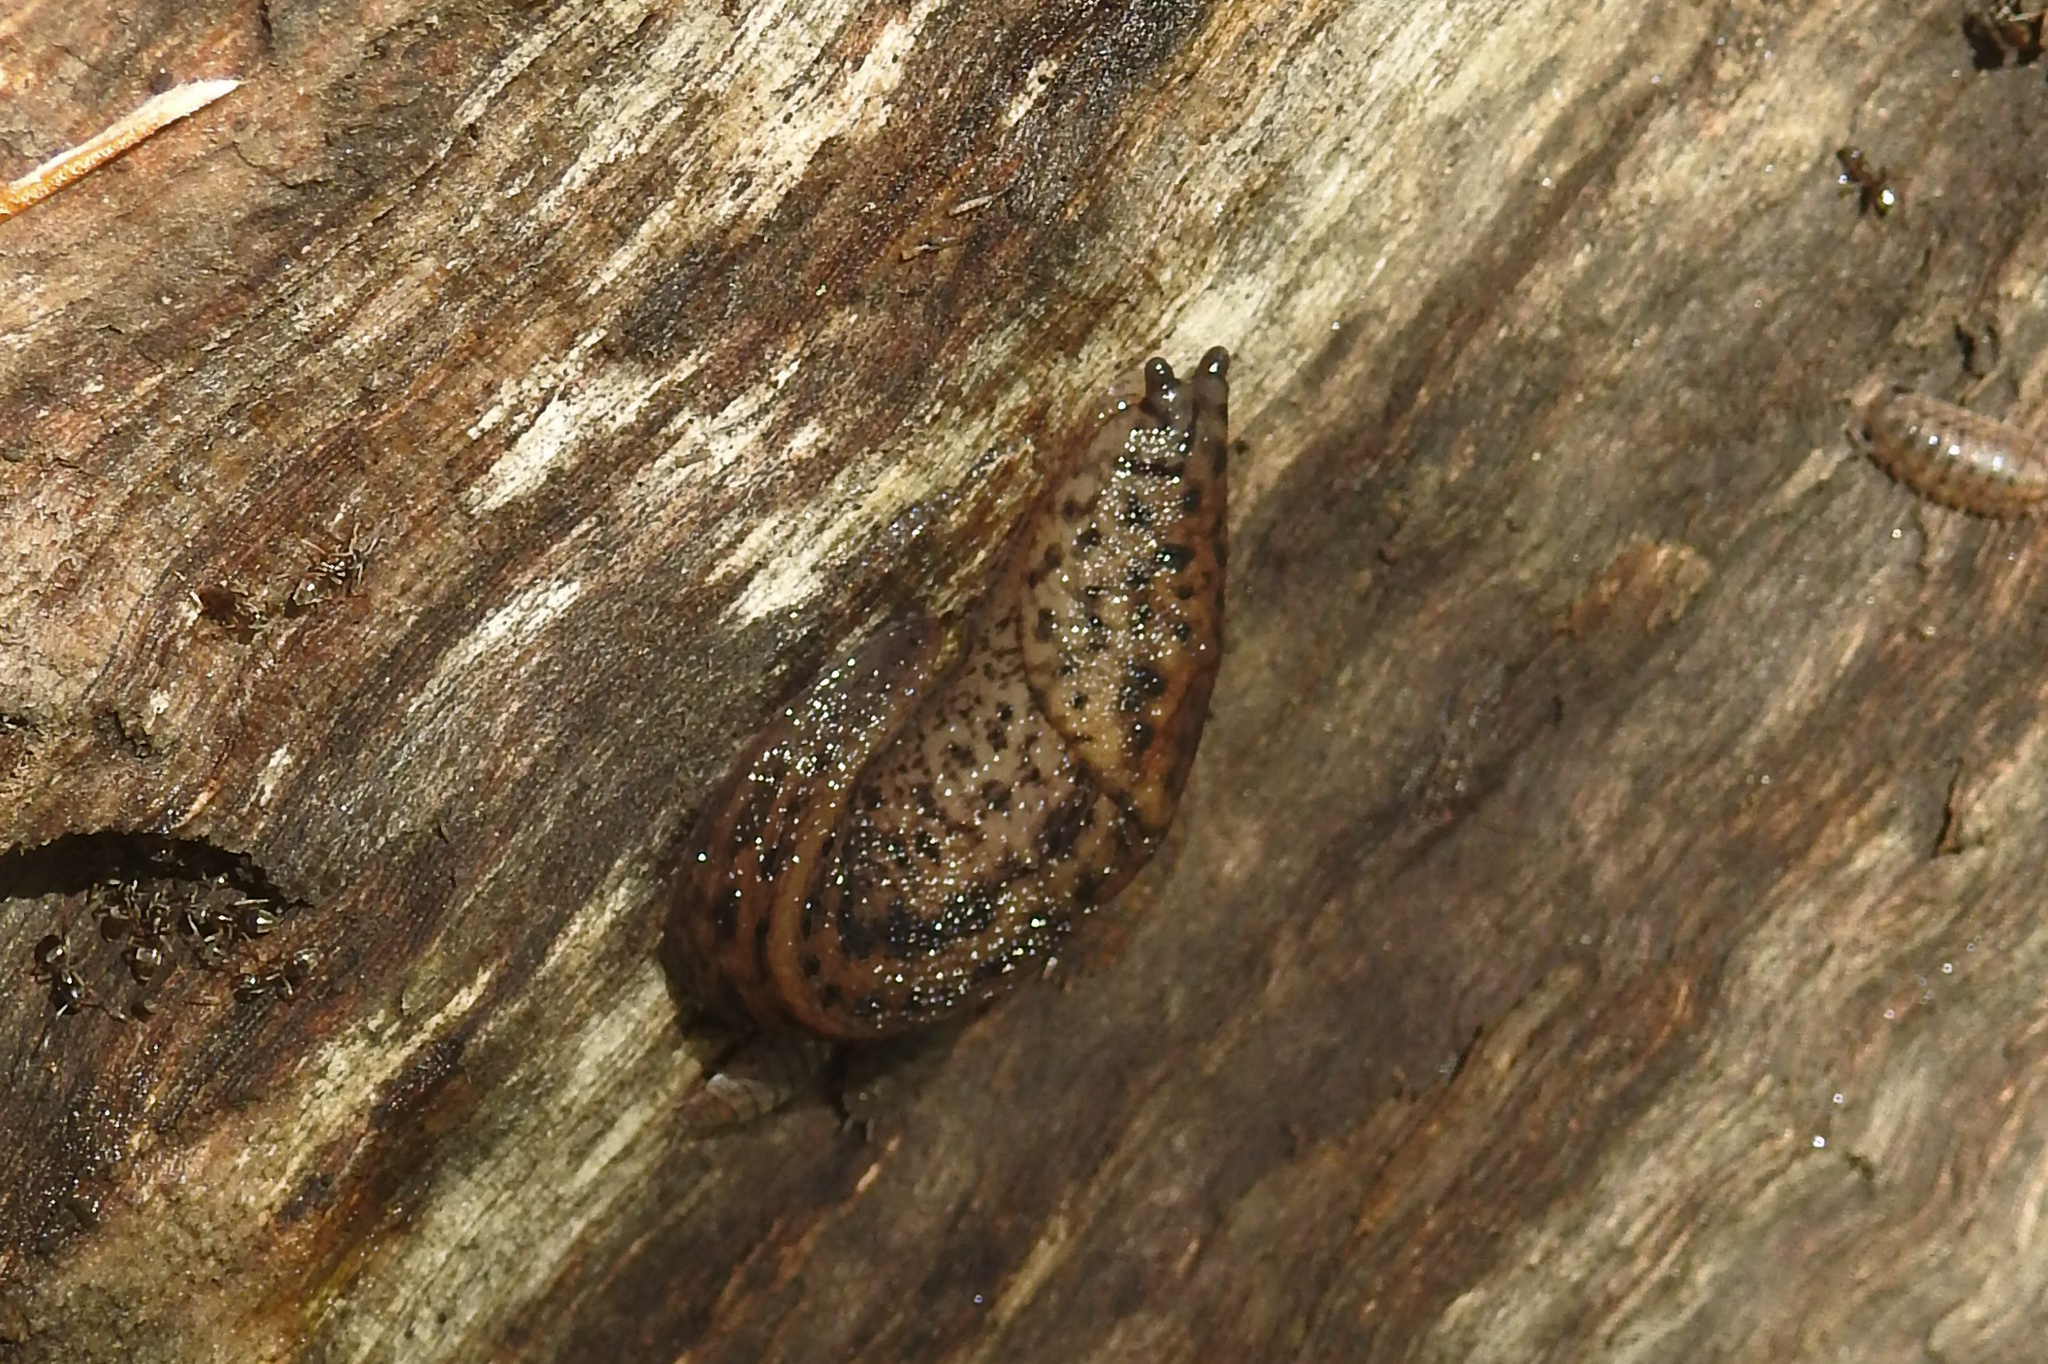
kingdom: Animalia
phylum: Mollusca
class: Gastropoda
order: Stylommatophora
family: Limacidae
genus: Limax
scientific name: Limax maximus
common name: Great grey slug
